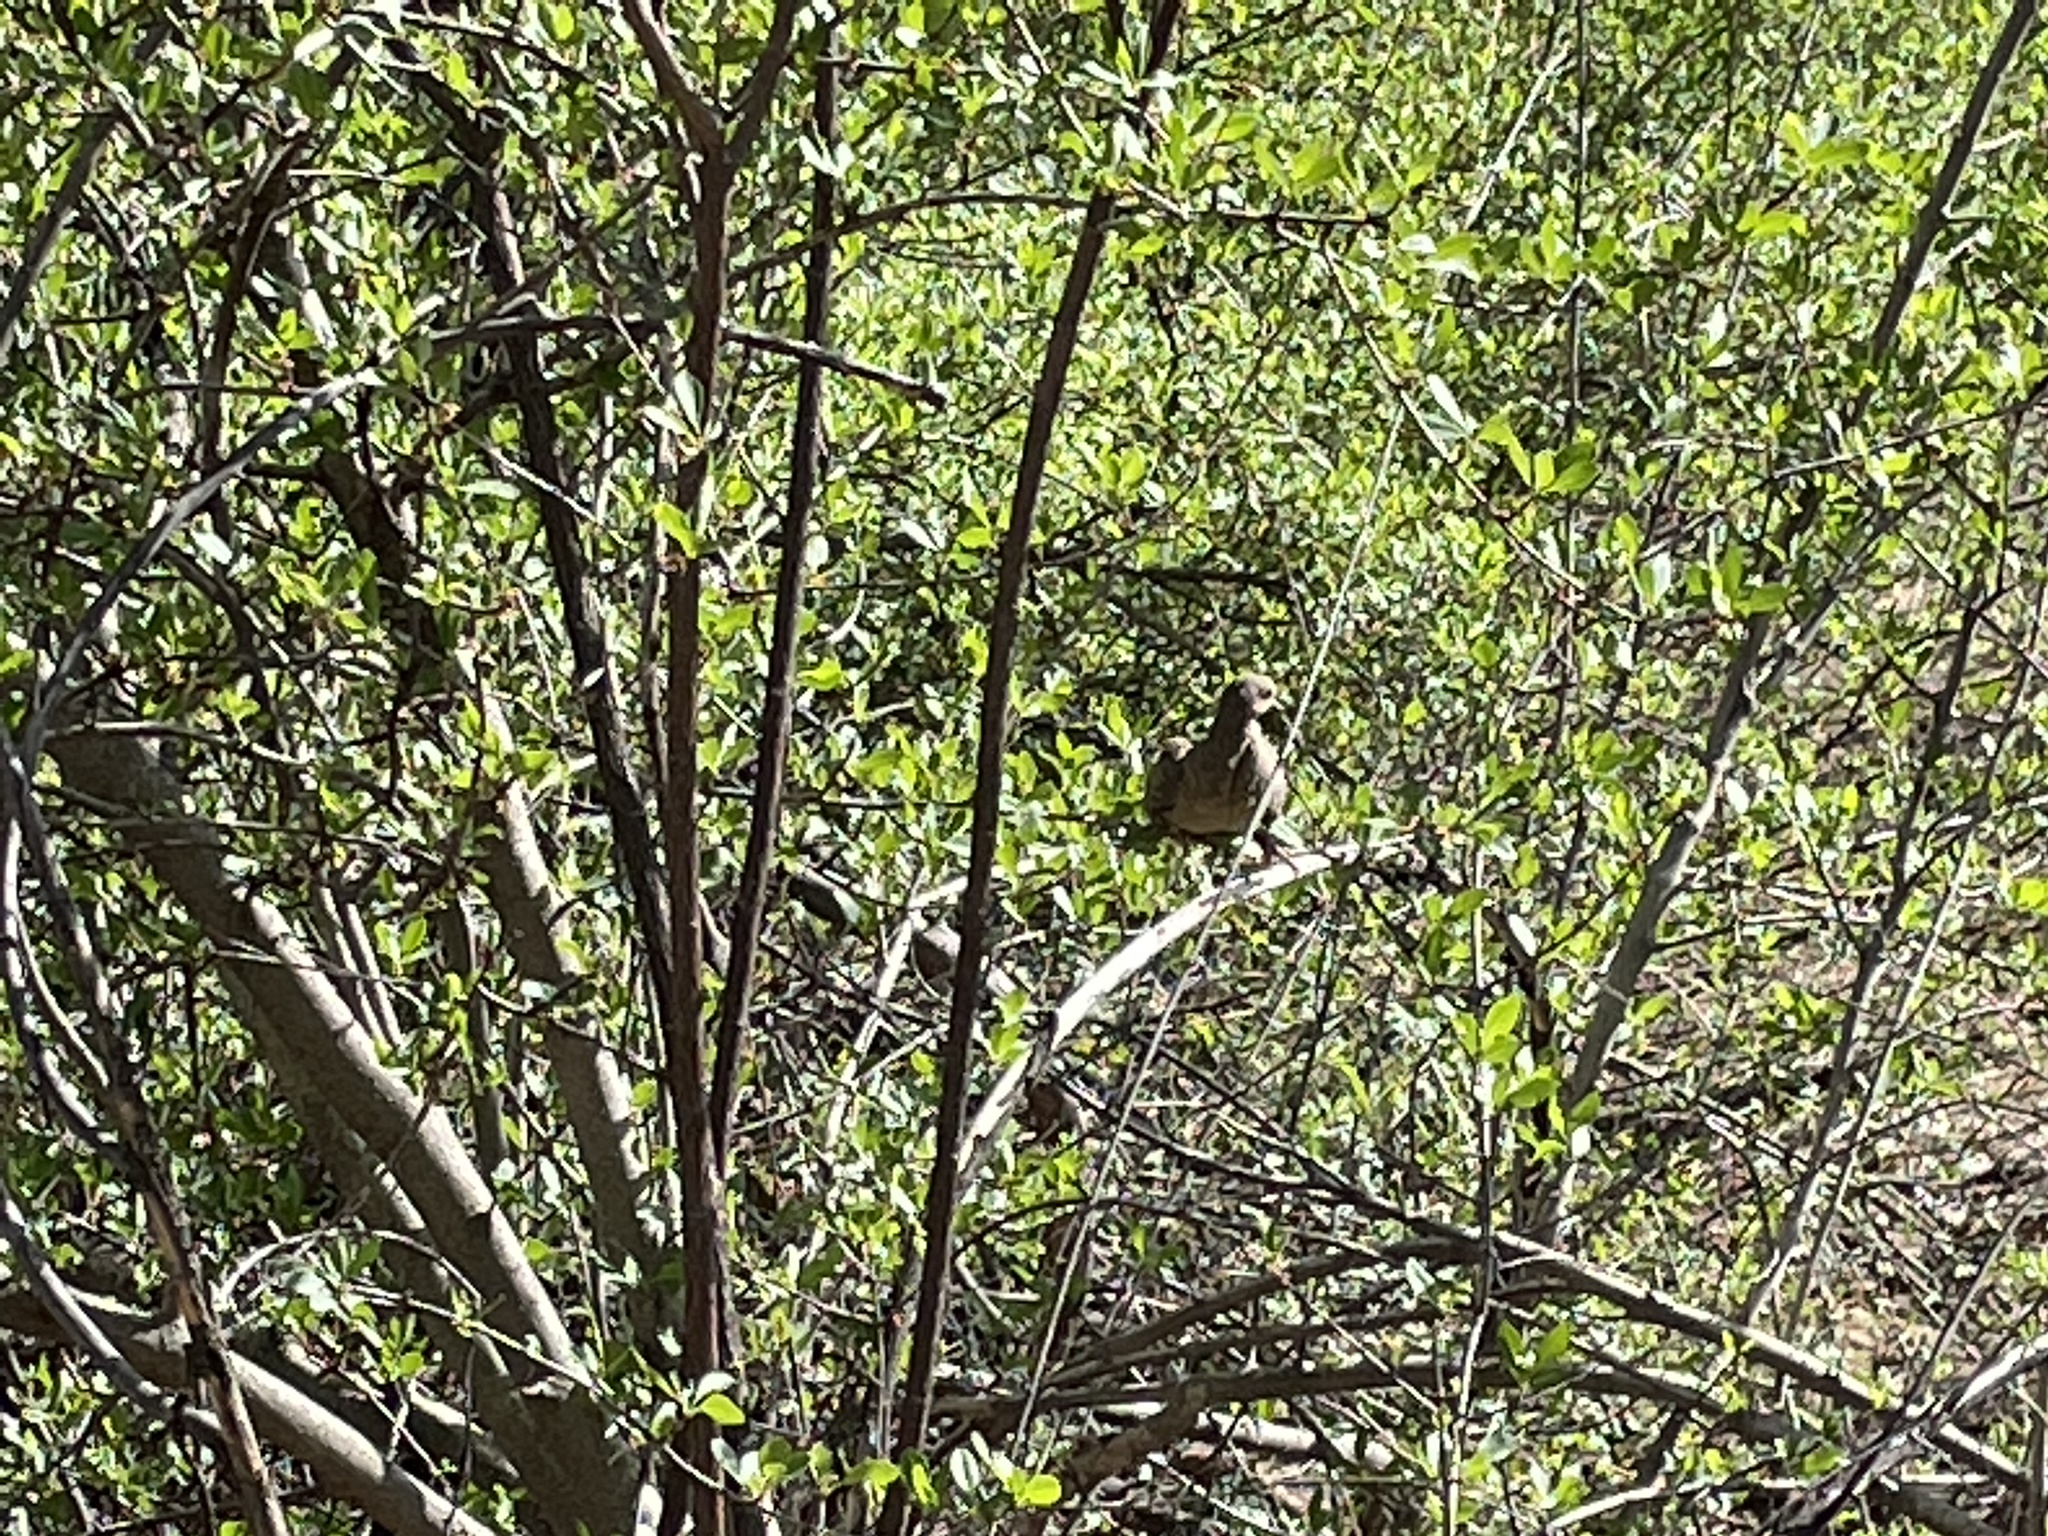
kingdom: Animalia
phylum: Chordata
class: Aves
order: Columbiformes
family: Columbidae
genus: Zenaida
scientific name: Zenaida macroura
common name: Mourning dove
